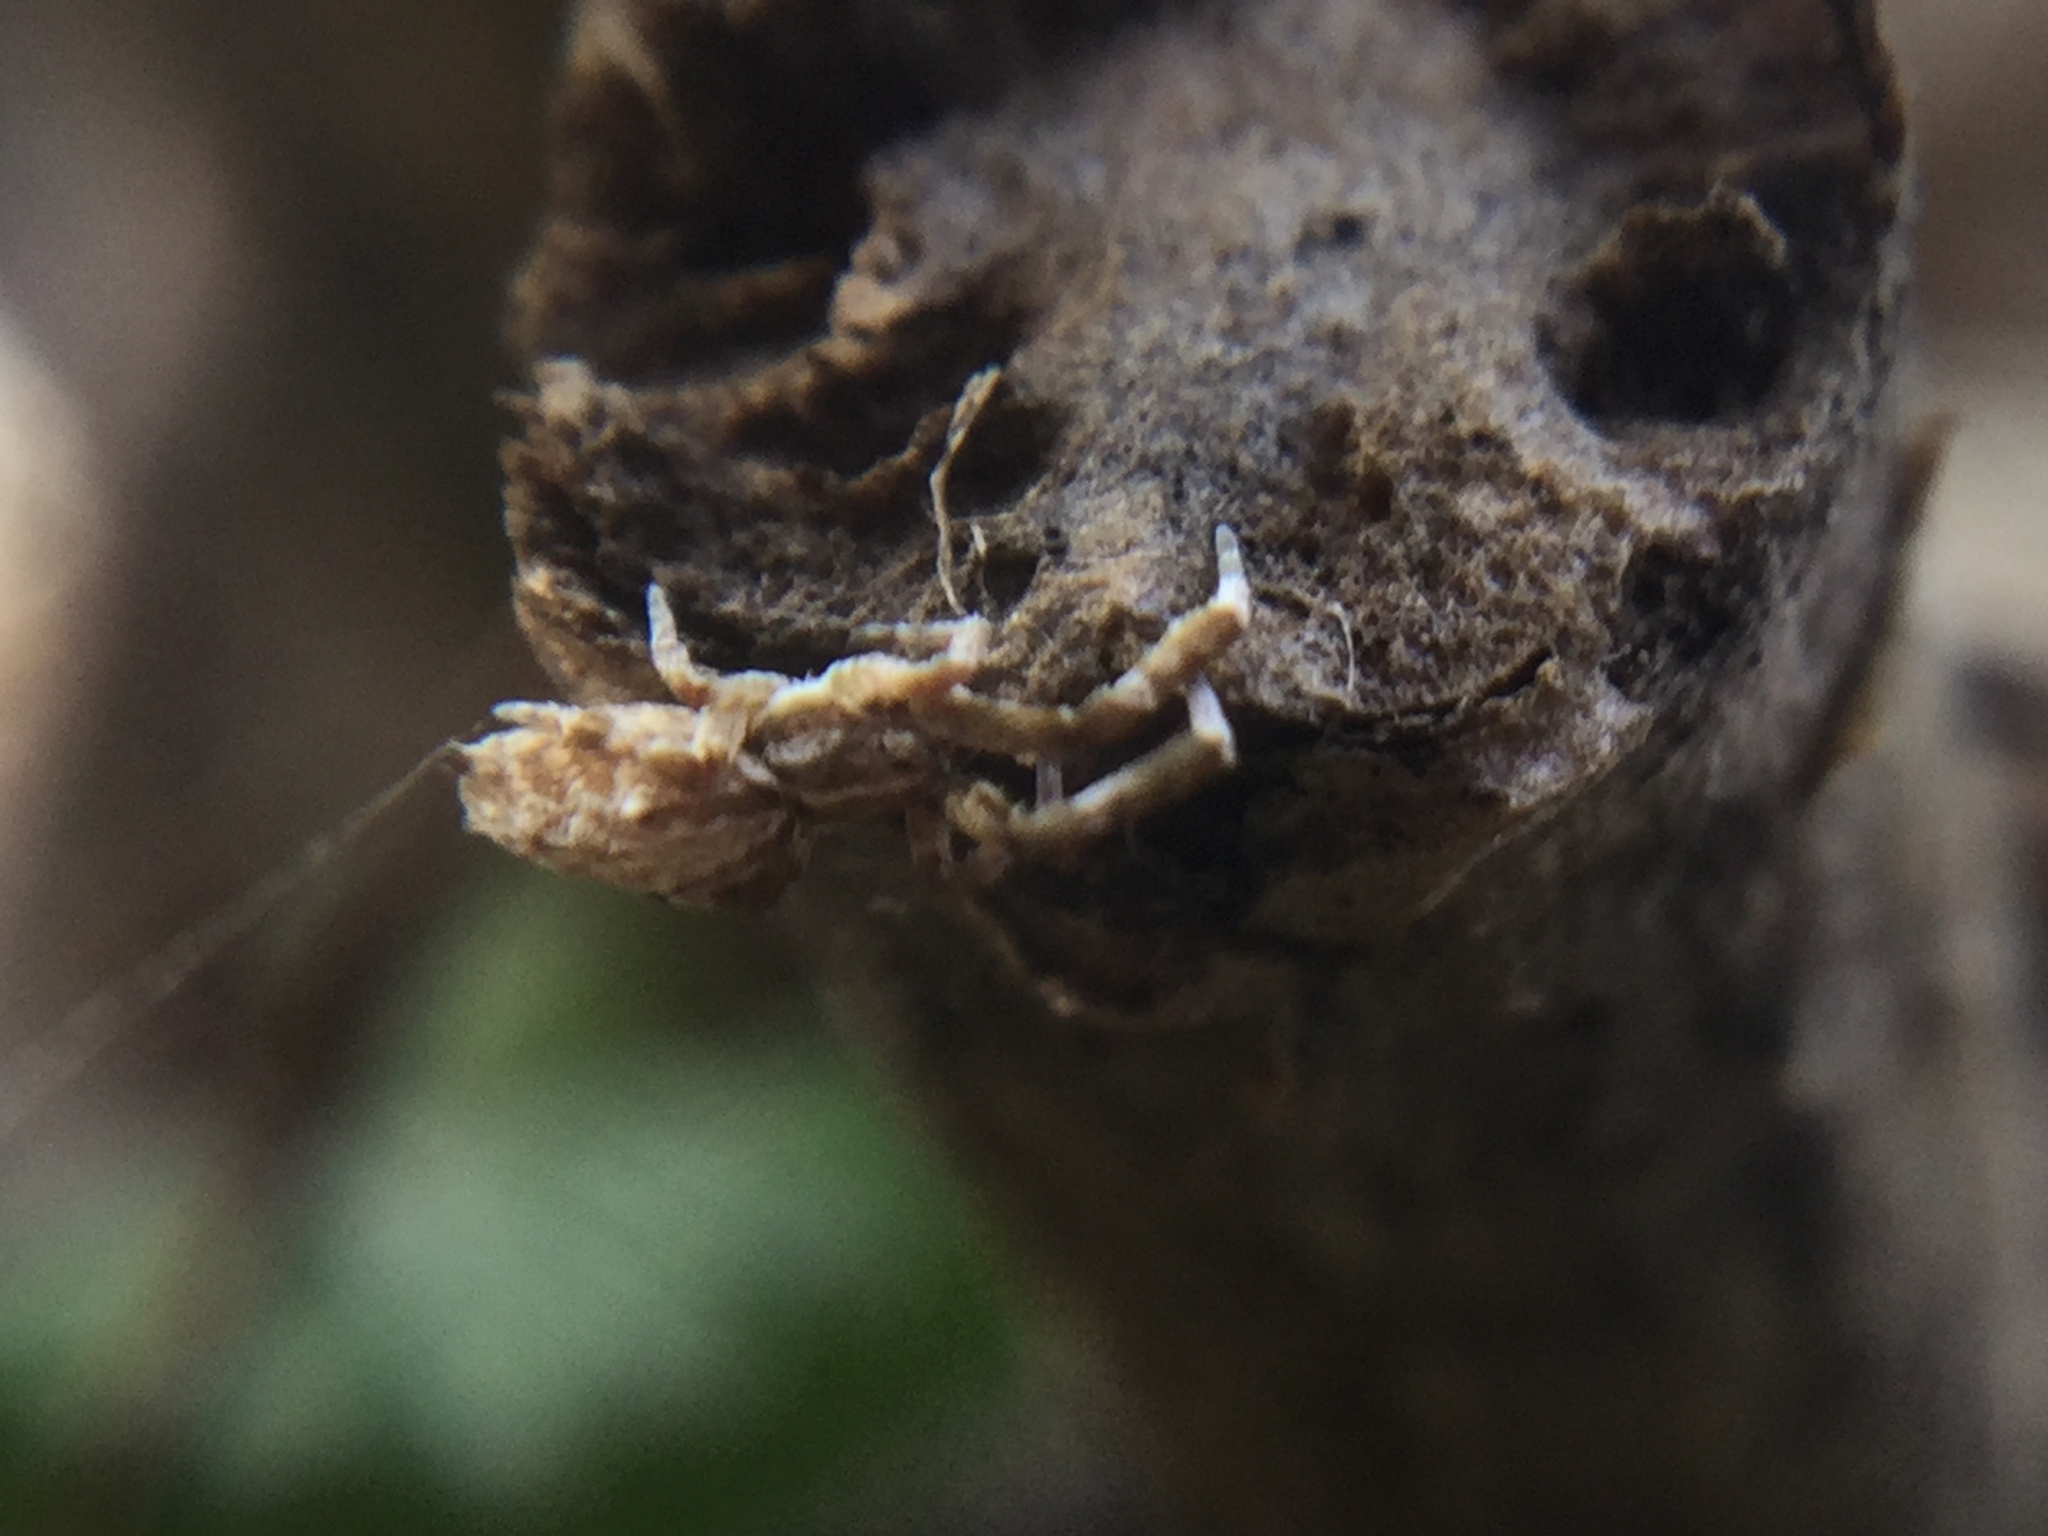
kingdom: Animalia
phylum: Arthropoda
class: Arachnida
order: Araneae
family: Uloboridae
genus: Uloborus
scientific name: Uloborus glomosus
